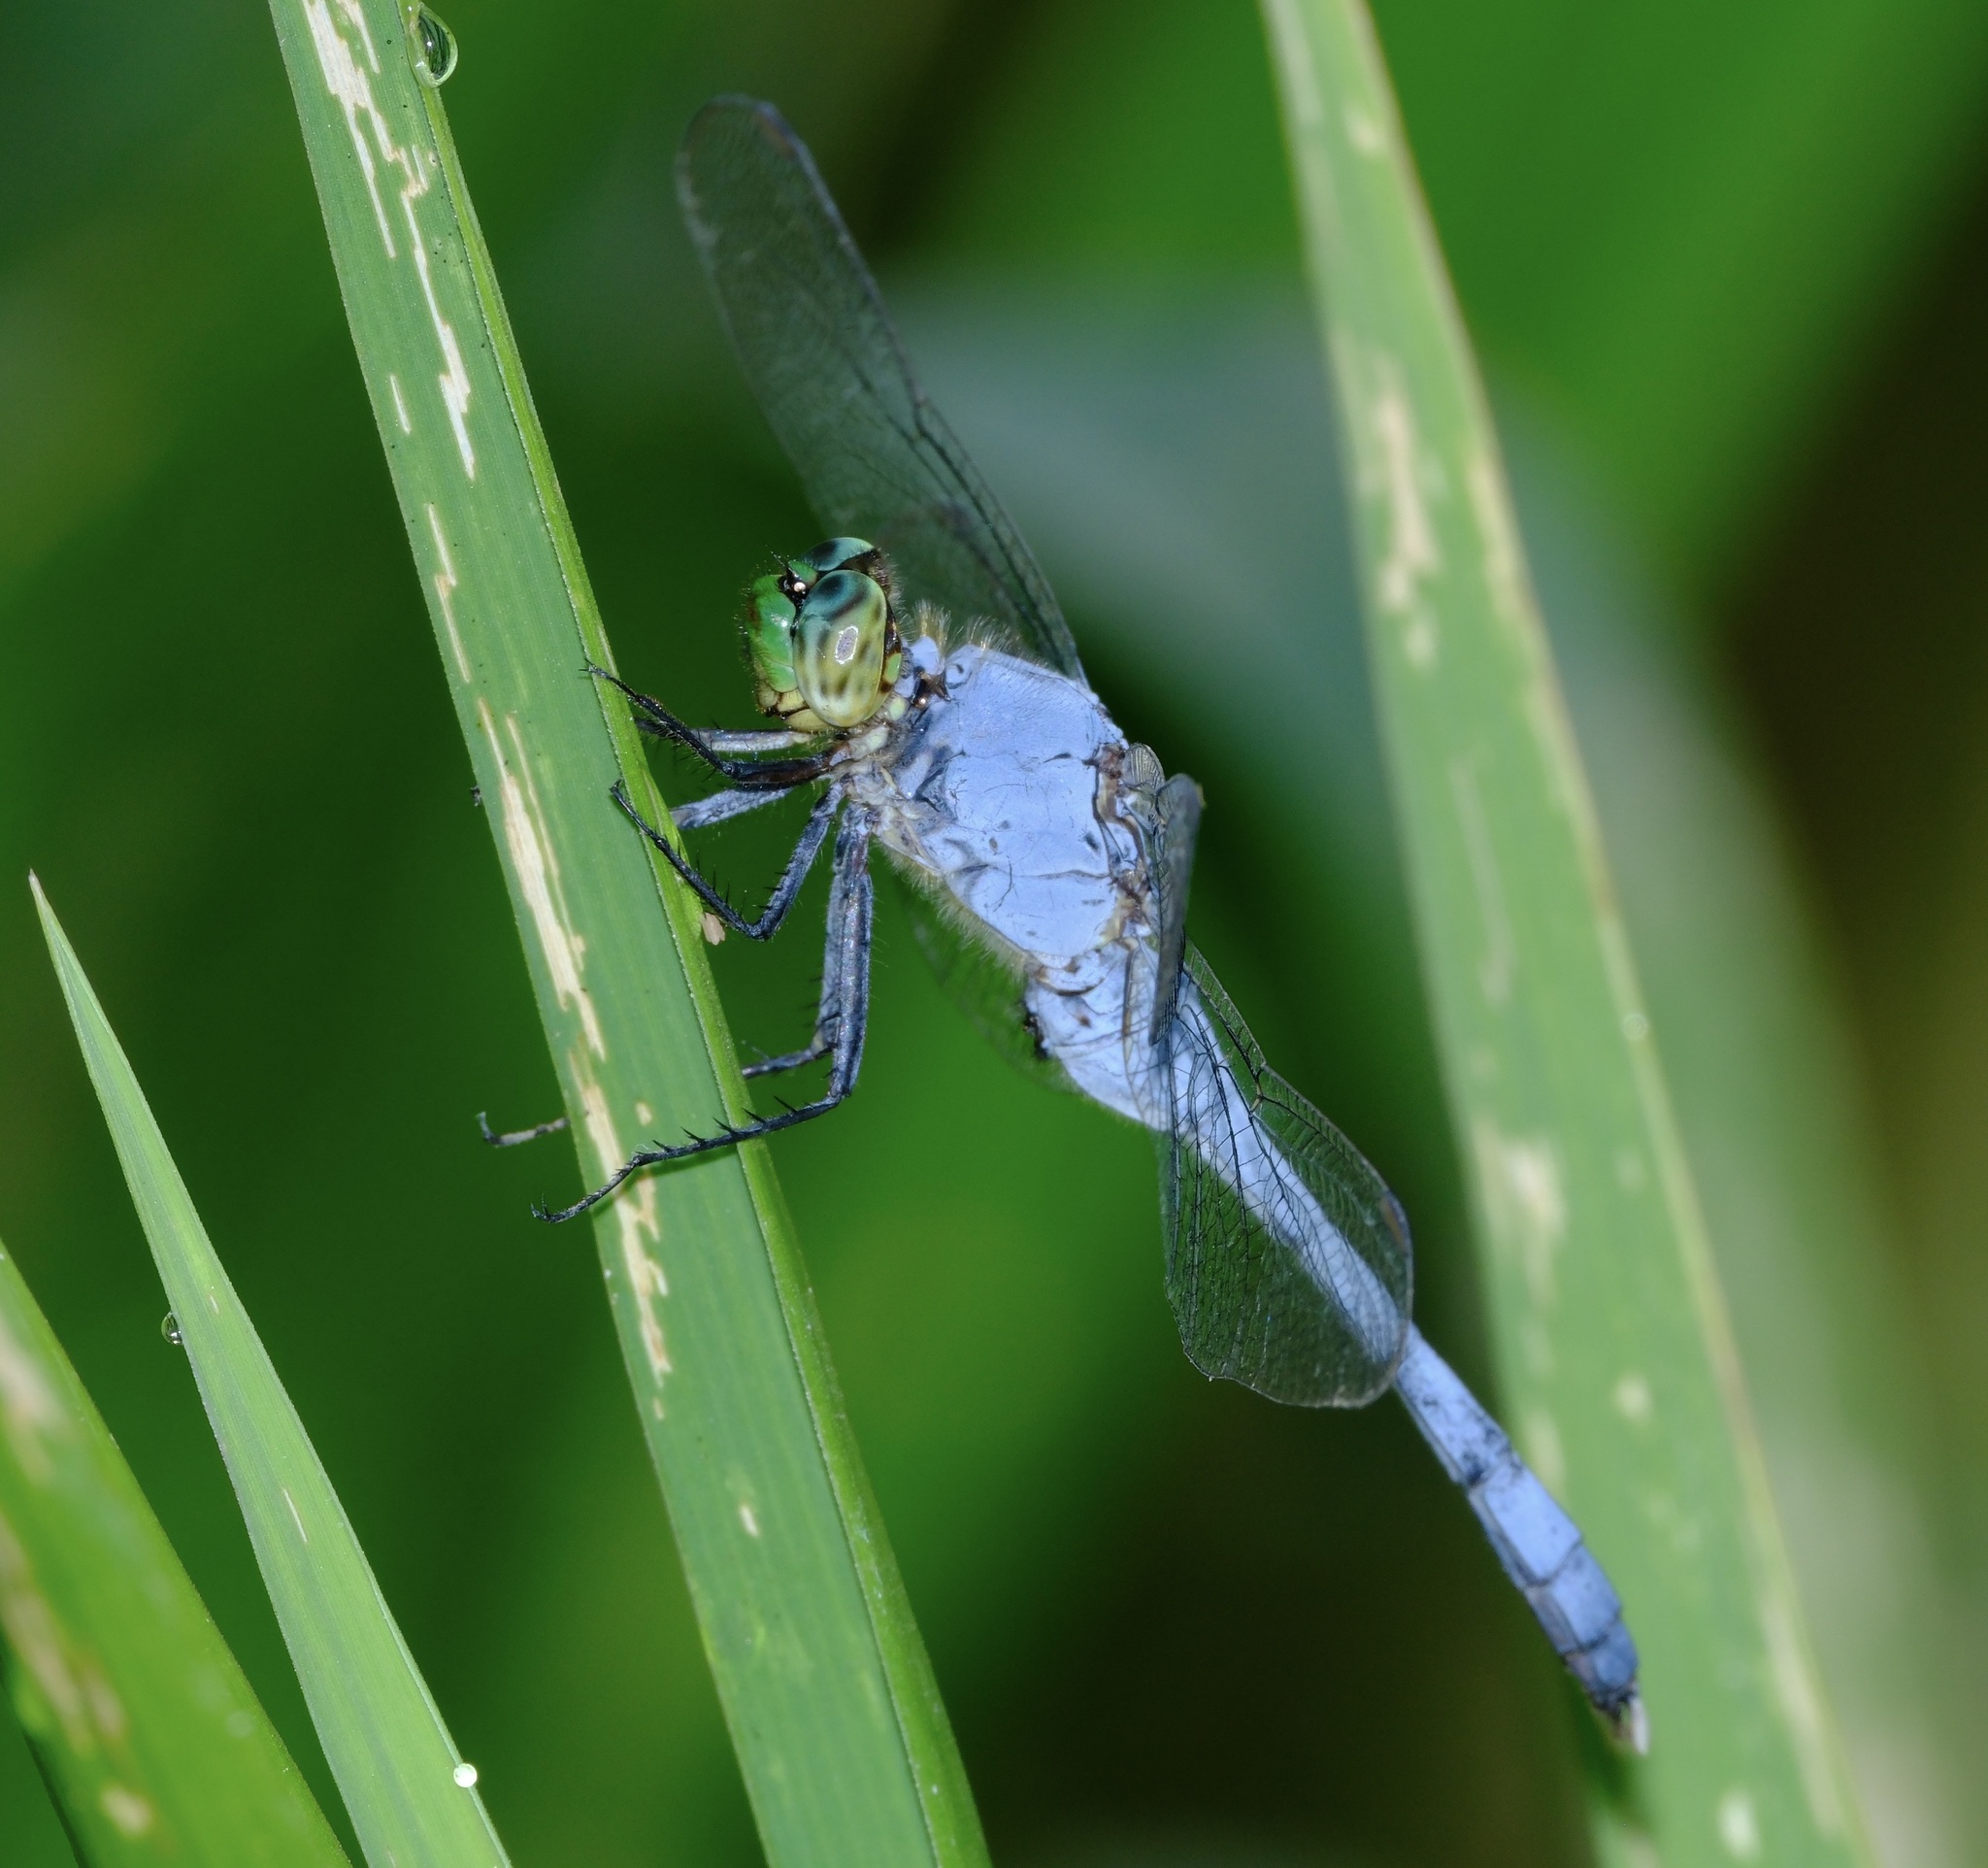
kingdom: Animalia
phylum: Arthropoda
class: Insecta
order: Odonata
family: Libellulidae
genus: Erythemis
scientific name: Erythemis simplicicollis
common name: Eastern pondhawk
